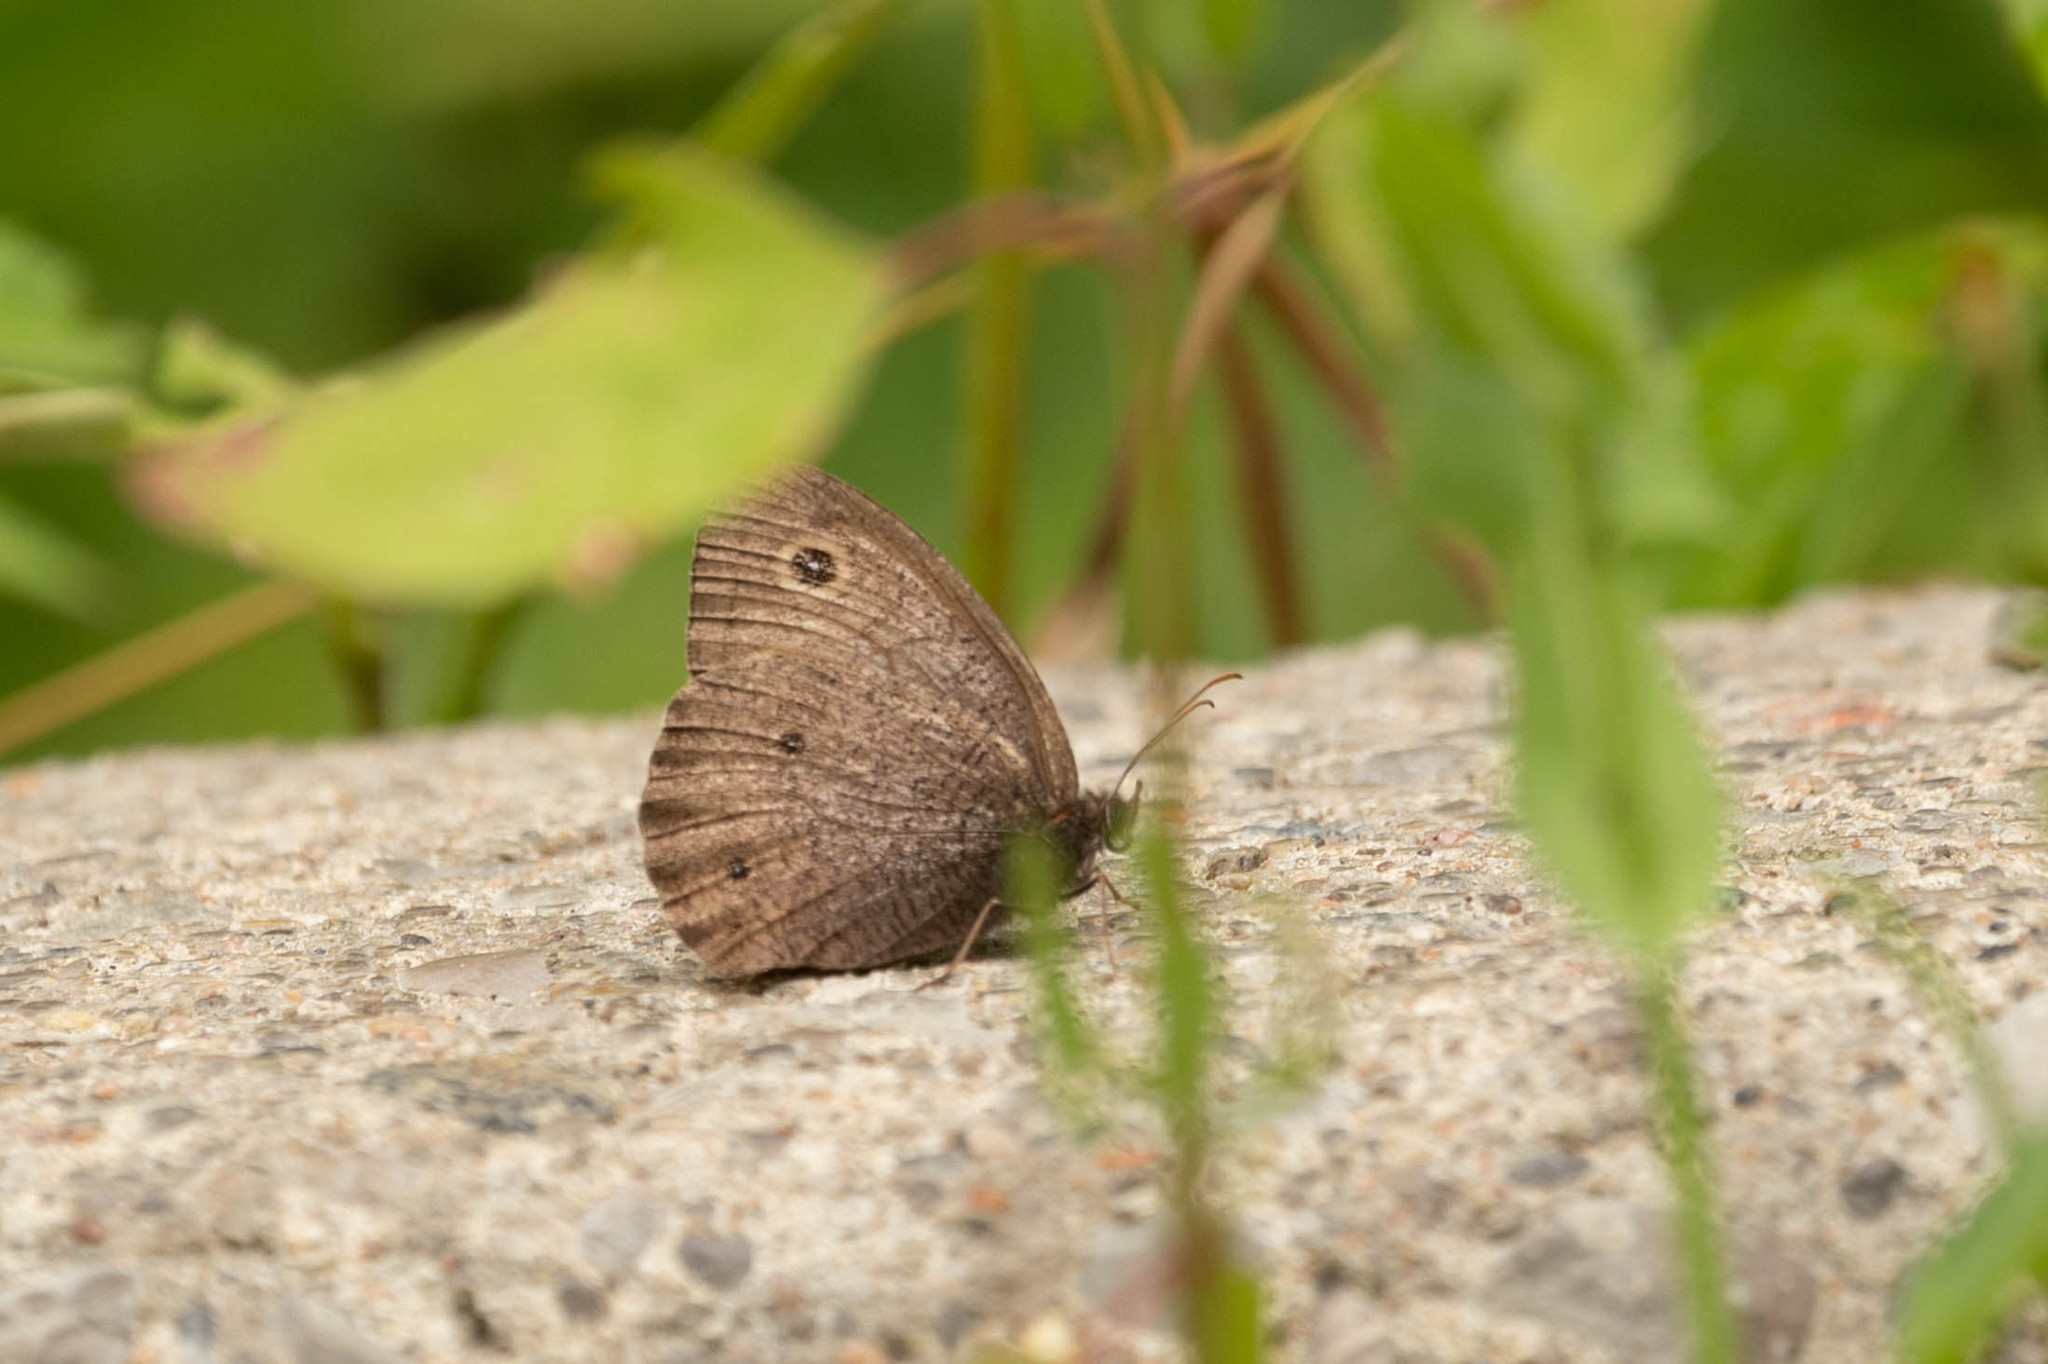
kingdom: Animalia
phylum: Arthropoda
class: Insecta
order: Lepidoptera
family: Nymphalidae
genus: Cercyonis
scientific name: Cercyonis pegala
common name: Common wood-nymph
